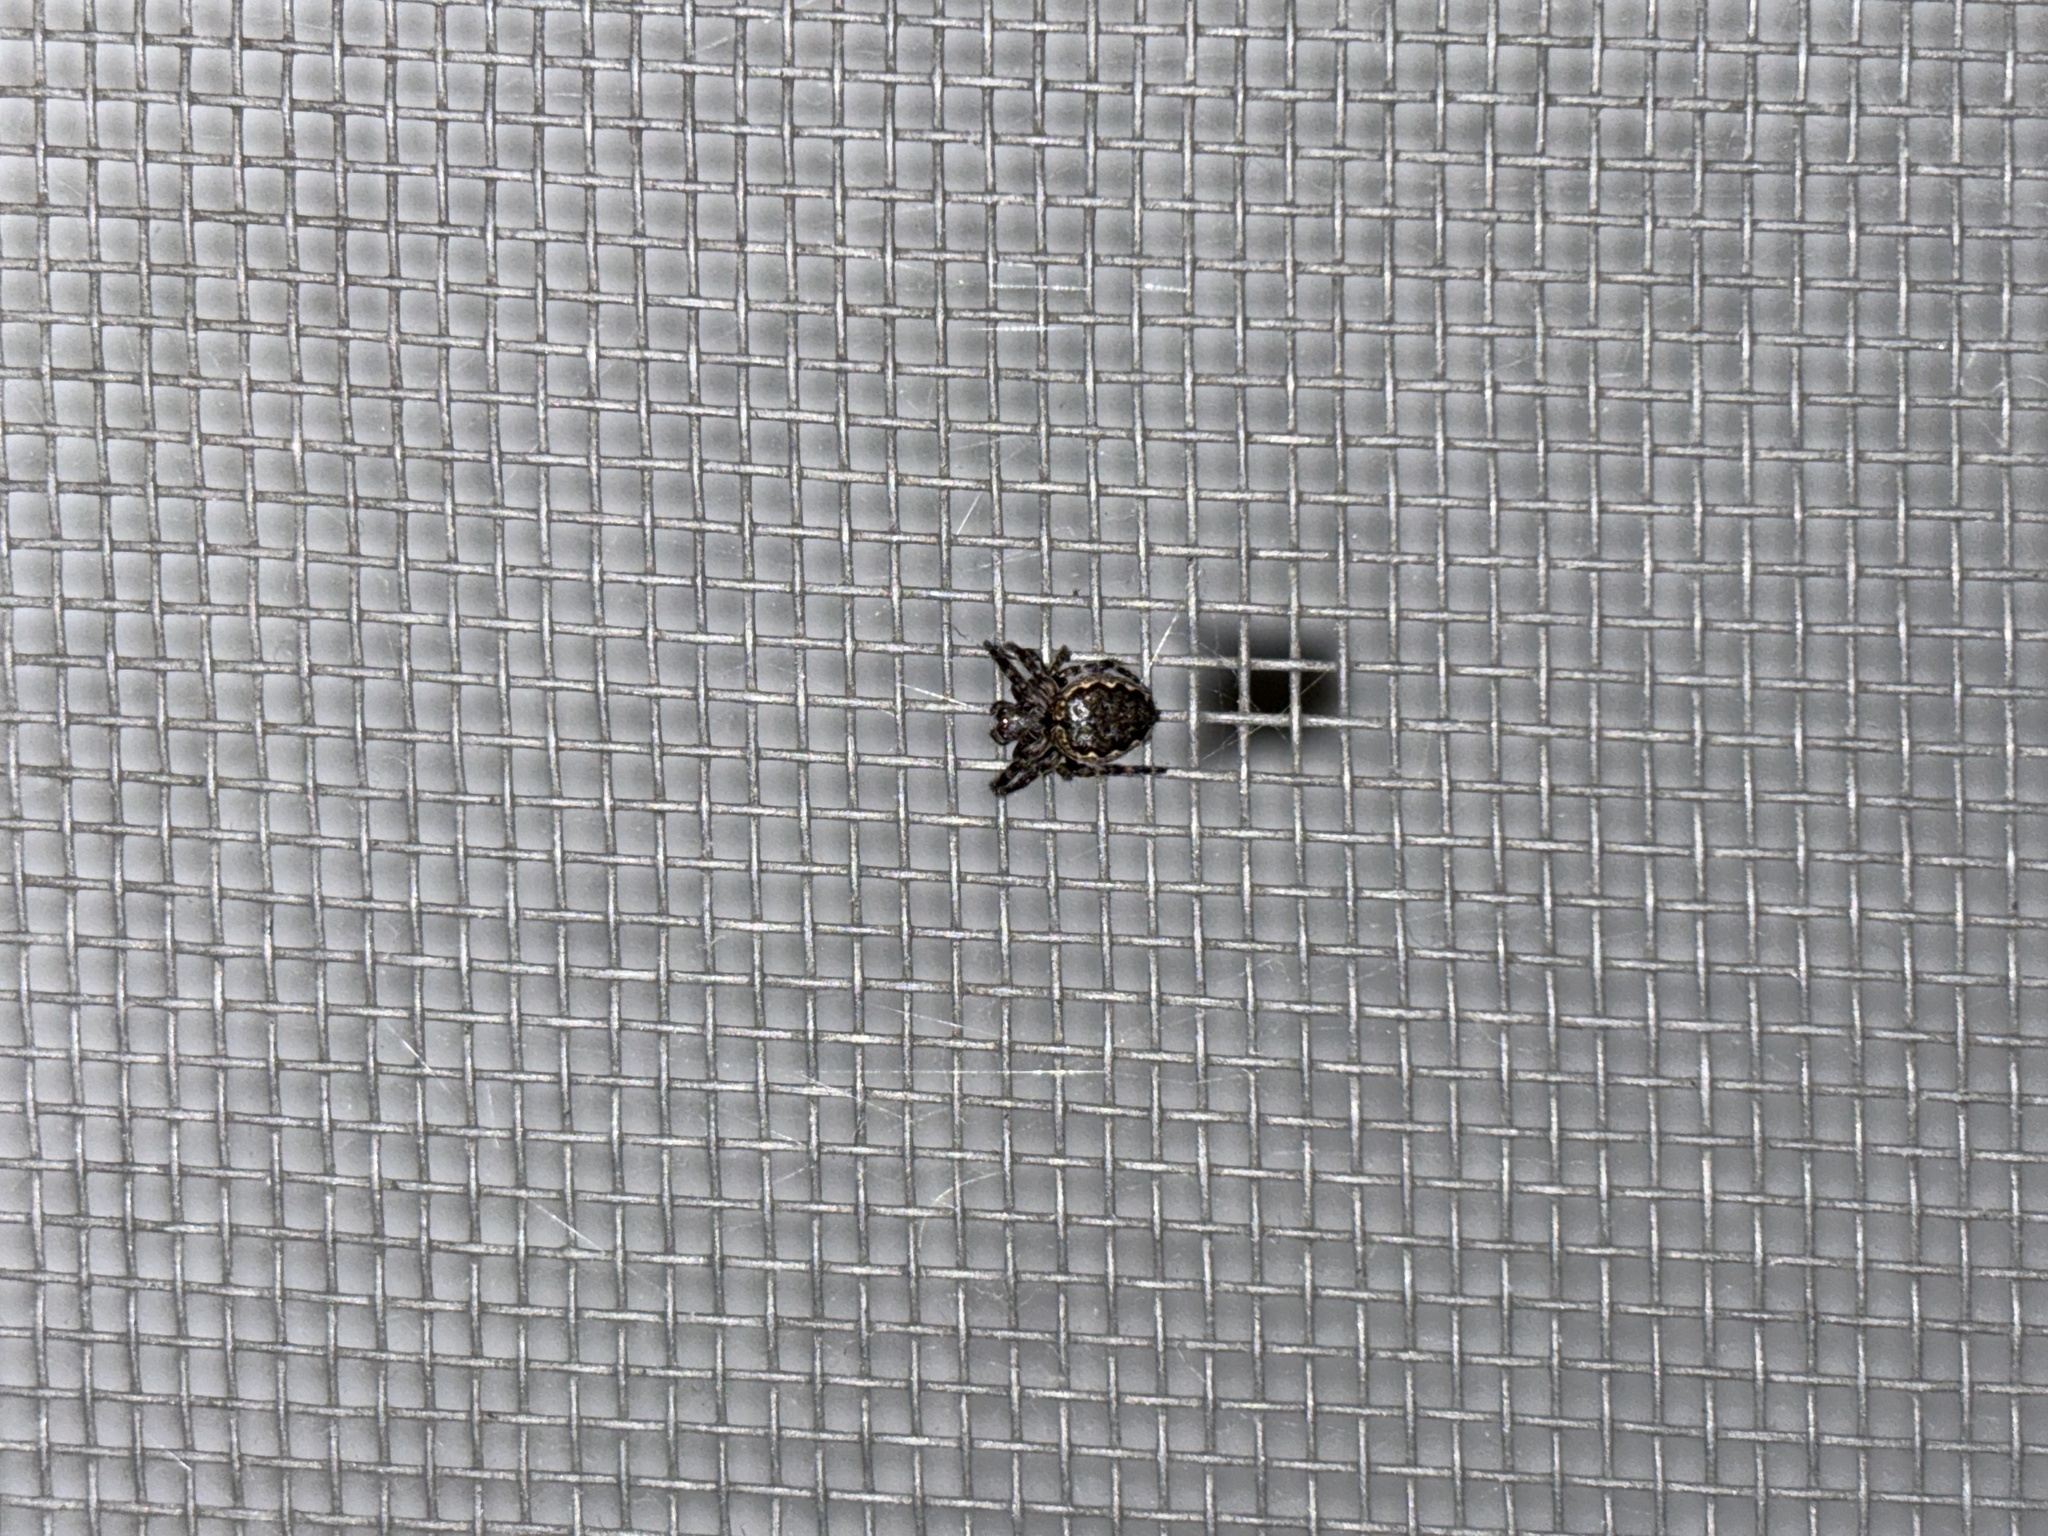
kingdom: Animalia
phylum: Arthropoda
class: Arachnida
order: Araneae
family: Araneidae
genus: Nuctenea
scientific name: Nuctenea umbratica
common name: Toad spider
